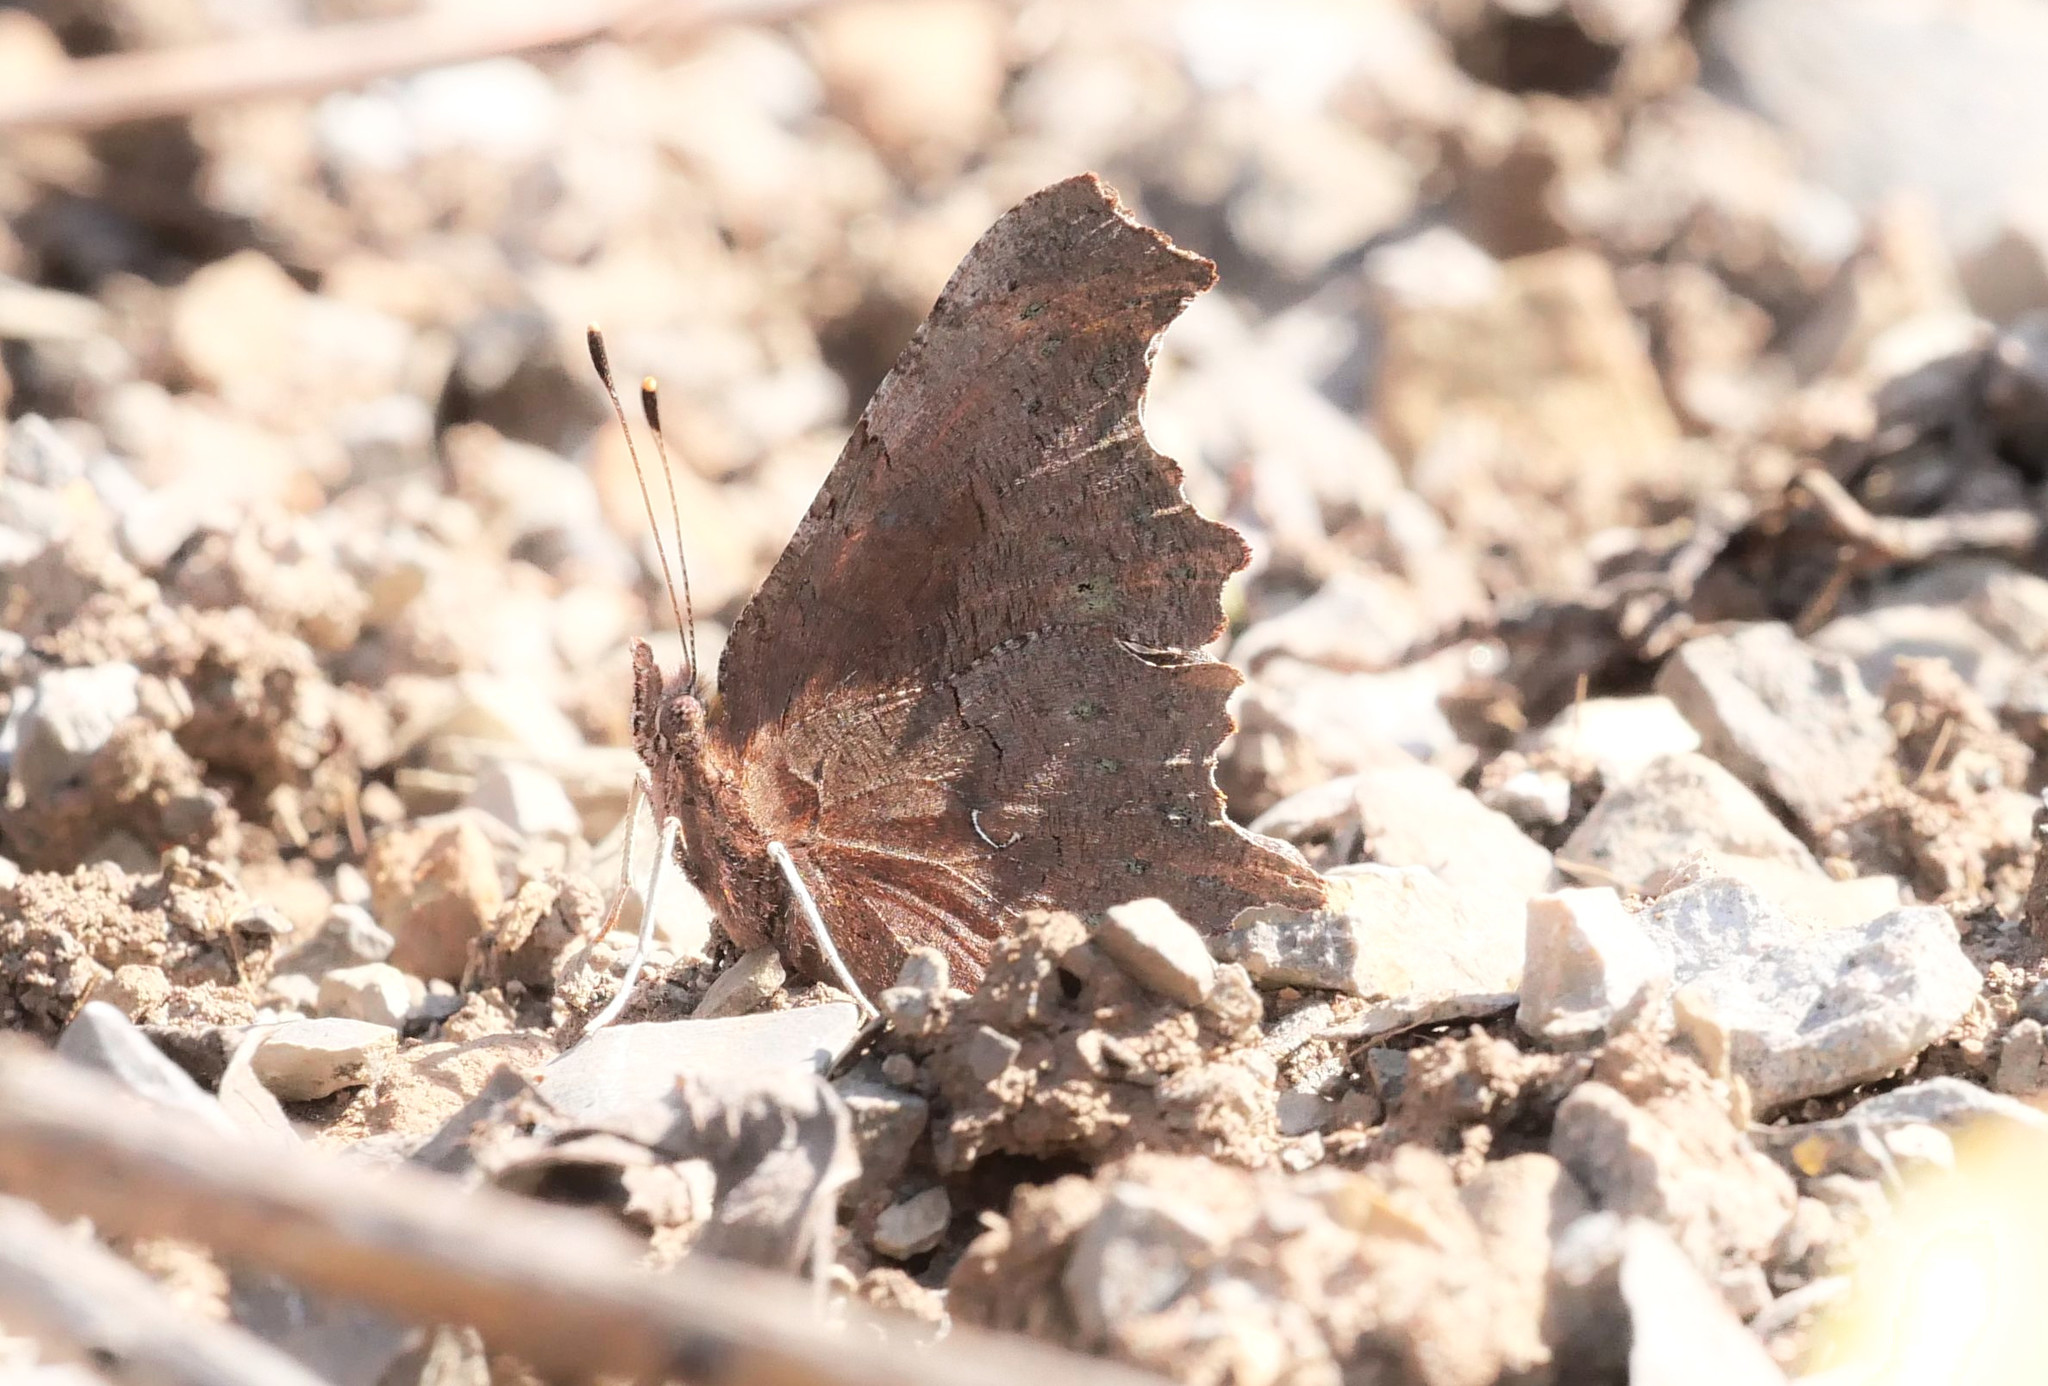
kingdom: Animalia
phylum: Arthropoda
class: Insecta
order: Lepidoptera
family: Nymphalidae
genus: Polygonia
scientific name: Polygonia c-album
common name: Comma
